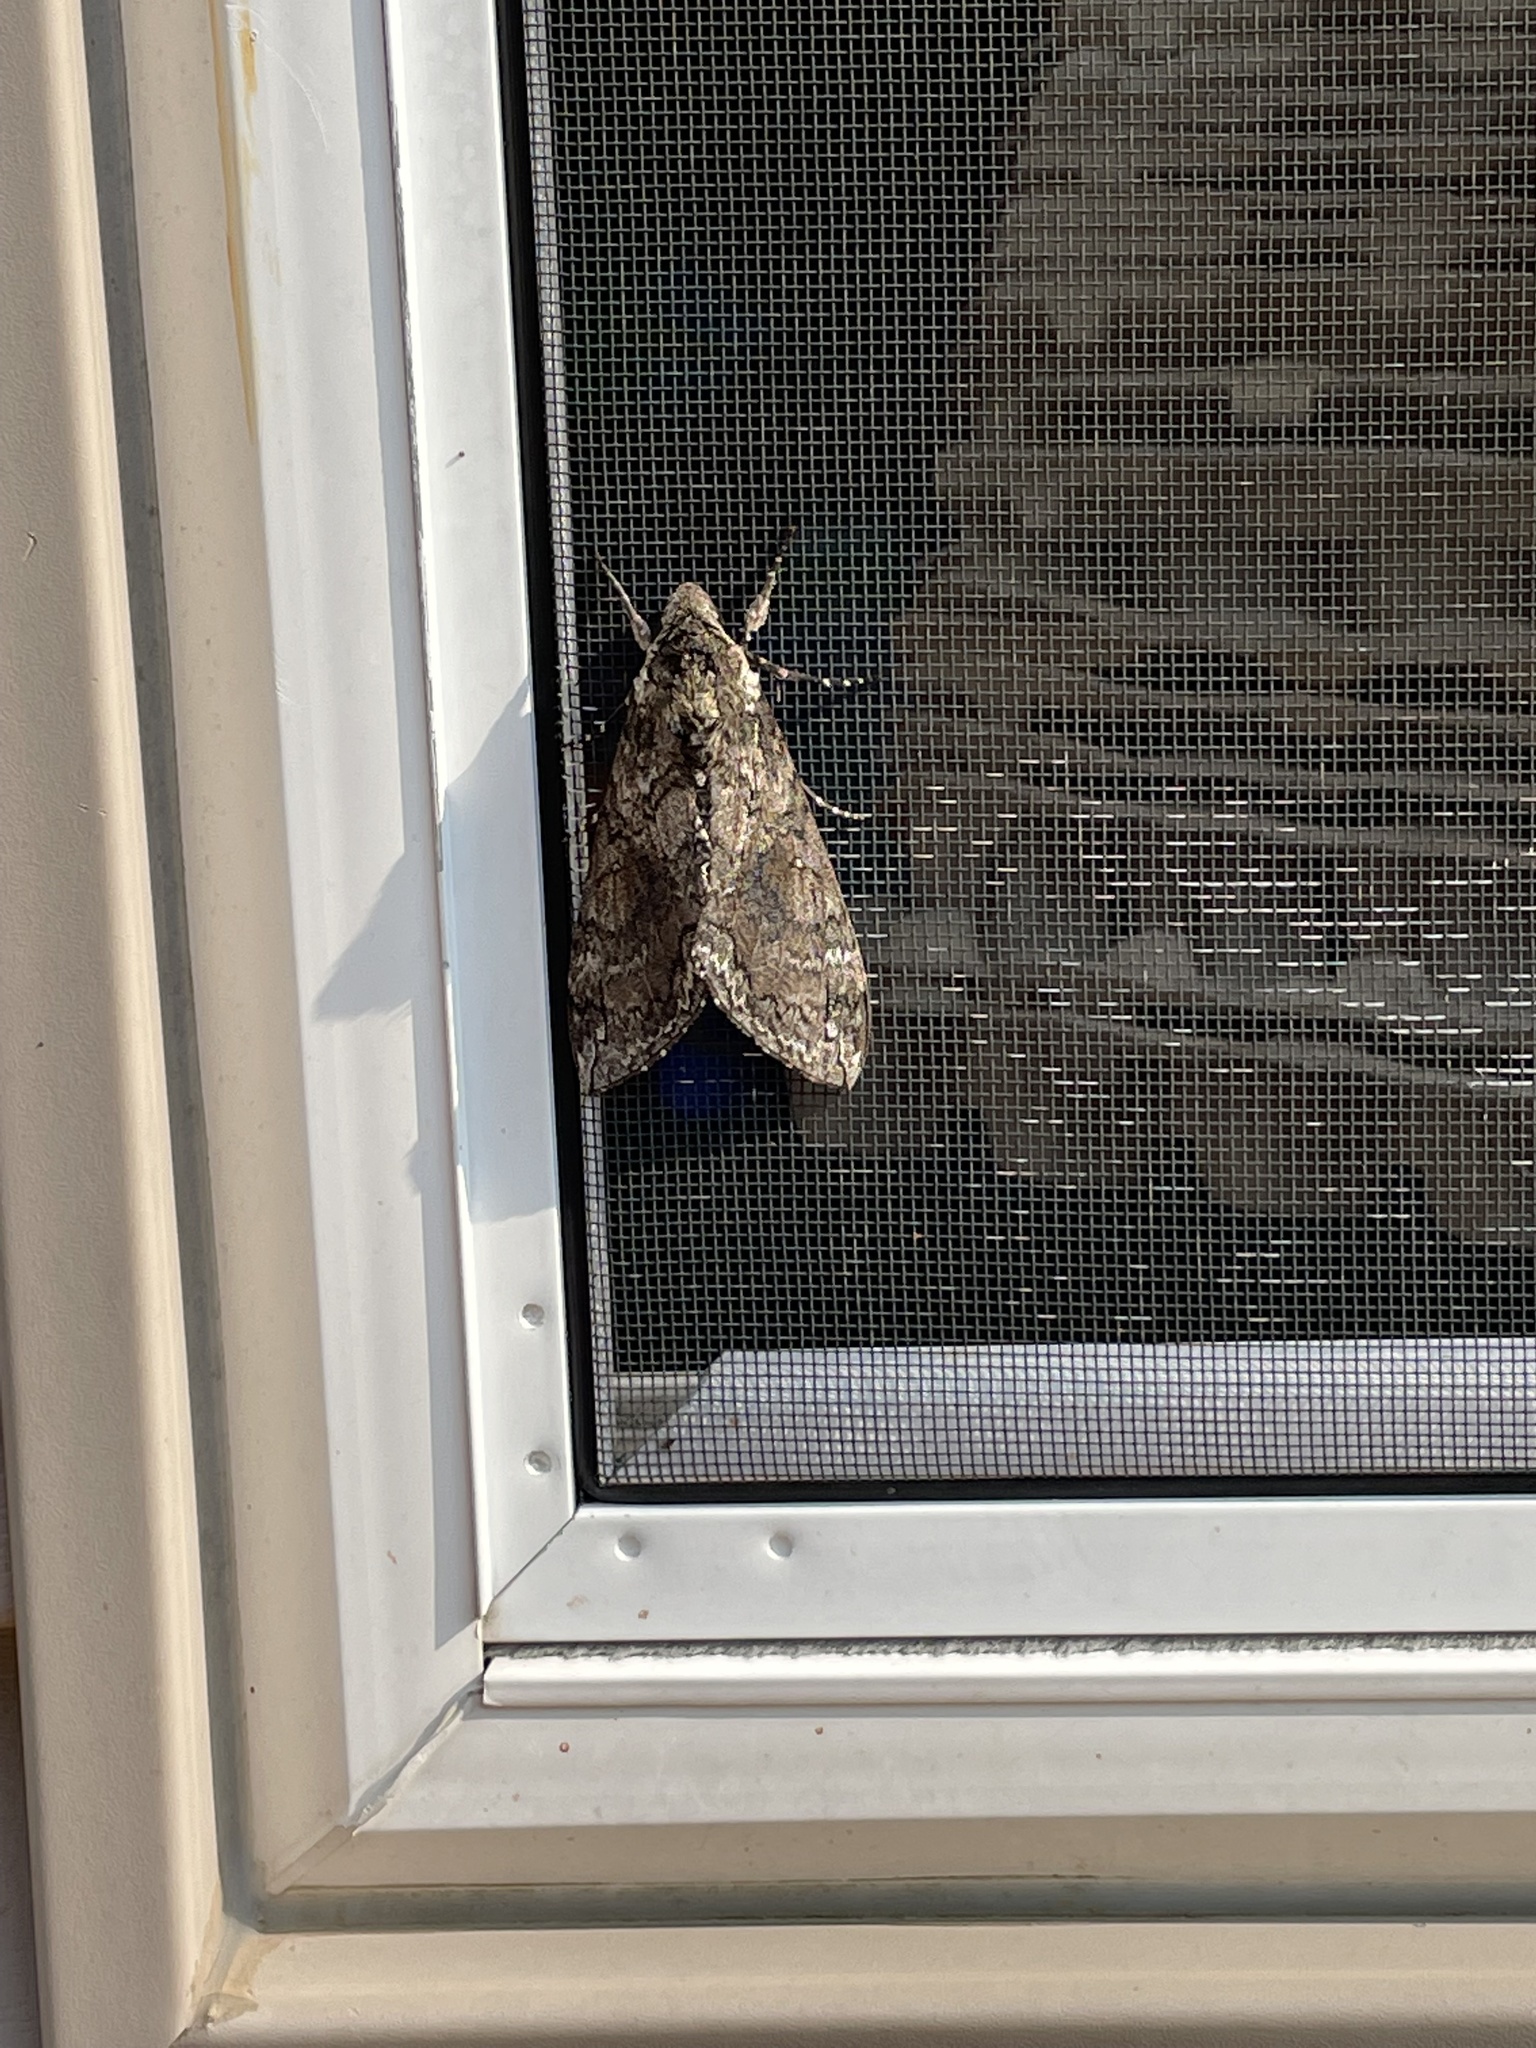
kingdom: Animalia
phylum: Arthropoda
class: Insecta
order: Lepidoptera
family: Sphingidae
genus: Manduca
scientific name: Manduca sexta
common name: Carolina sphinx
